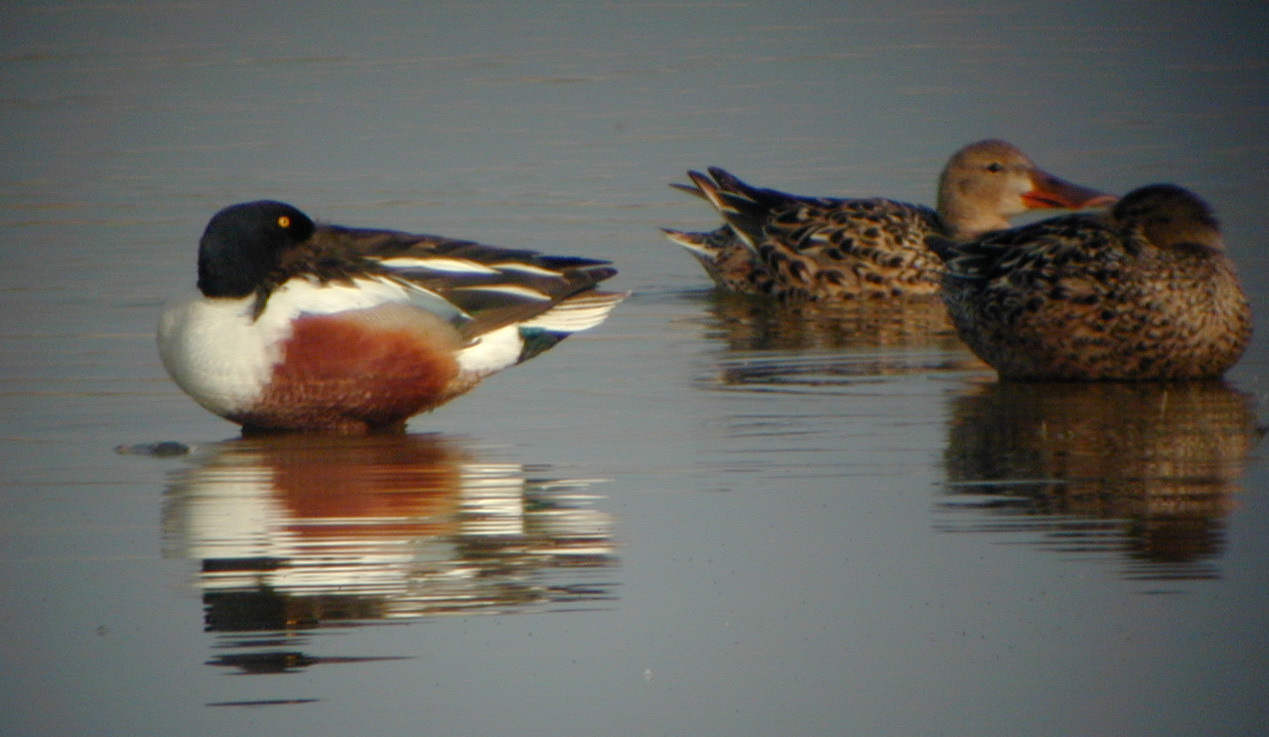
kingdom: Animalia
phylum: Chordata
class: Aves
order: Anseriformes
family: Anatidae
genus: Spatula
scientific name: Spatula clypeata
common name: Northern shoveler
